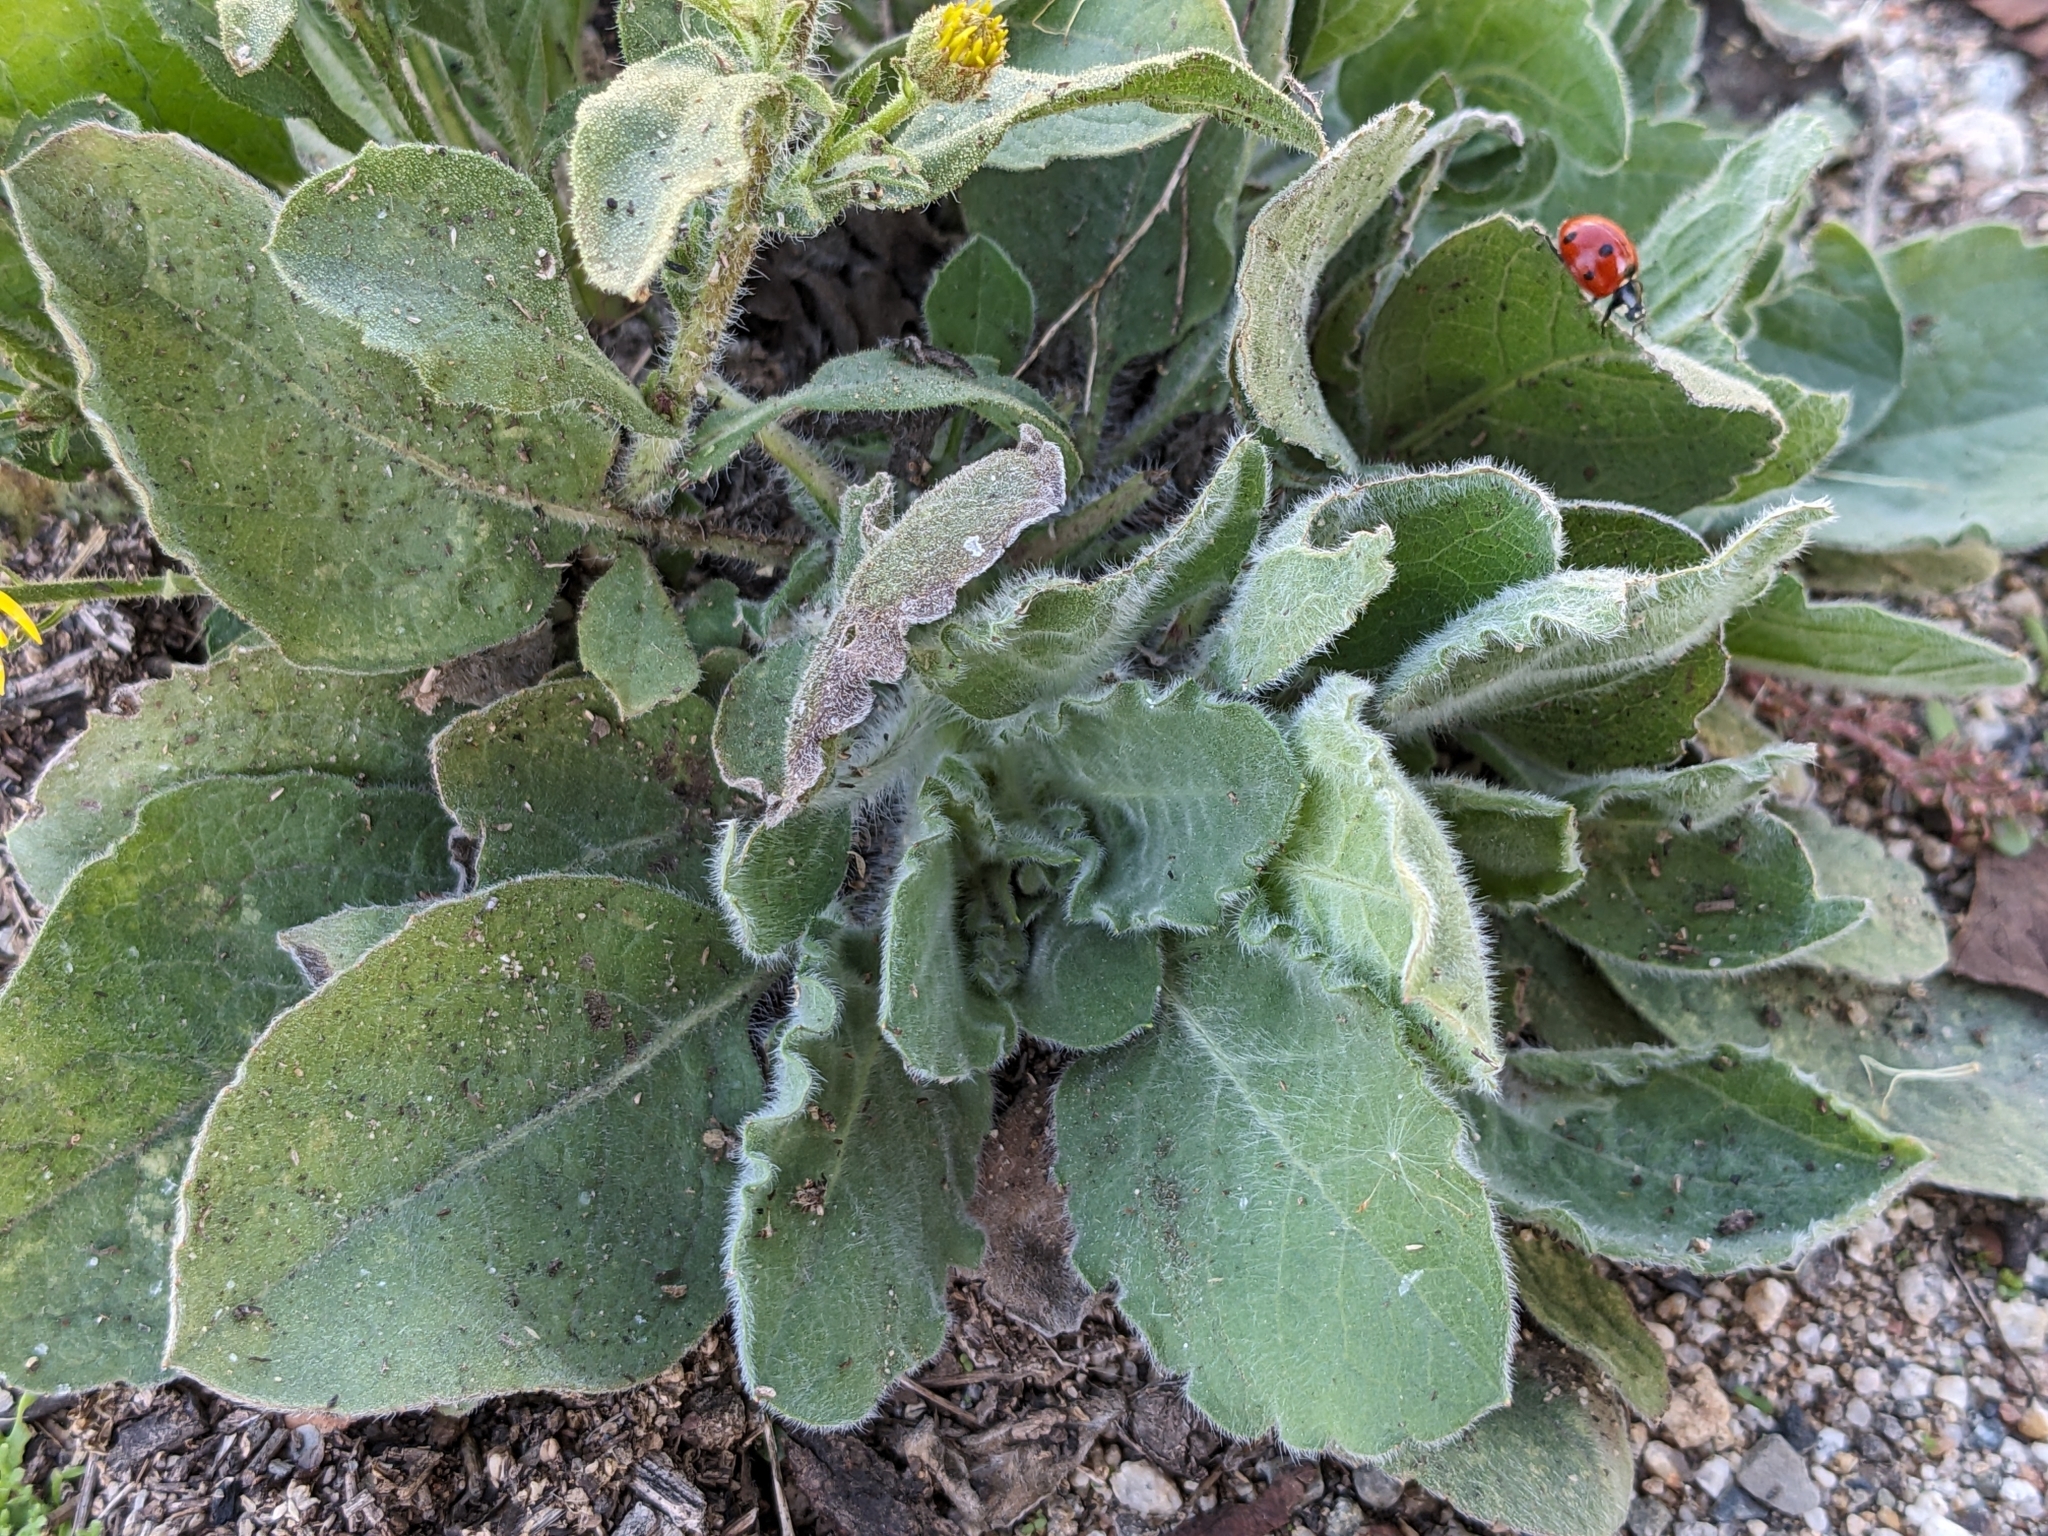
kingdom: Plantae
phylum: Tracheophyta
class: Magnoliopsida
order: Asterales
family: Asteraceae
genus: Heterotheca
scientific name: Heterotheca grandiflora
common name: Telegraphweed
